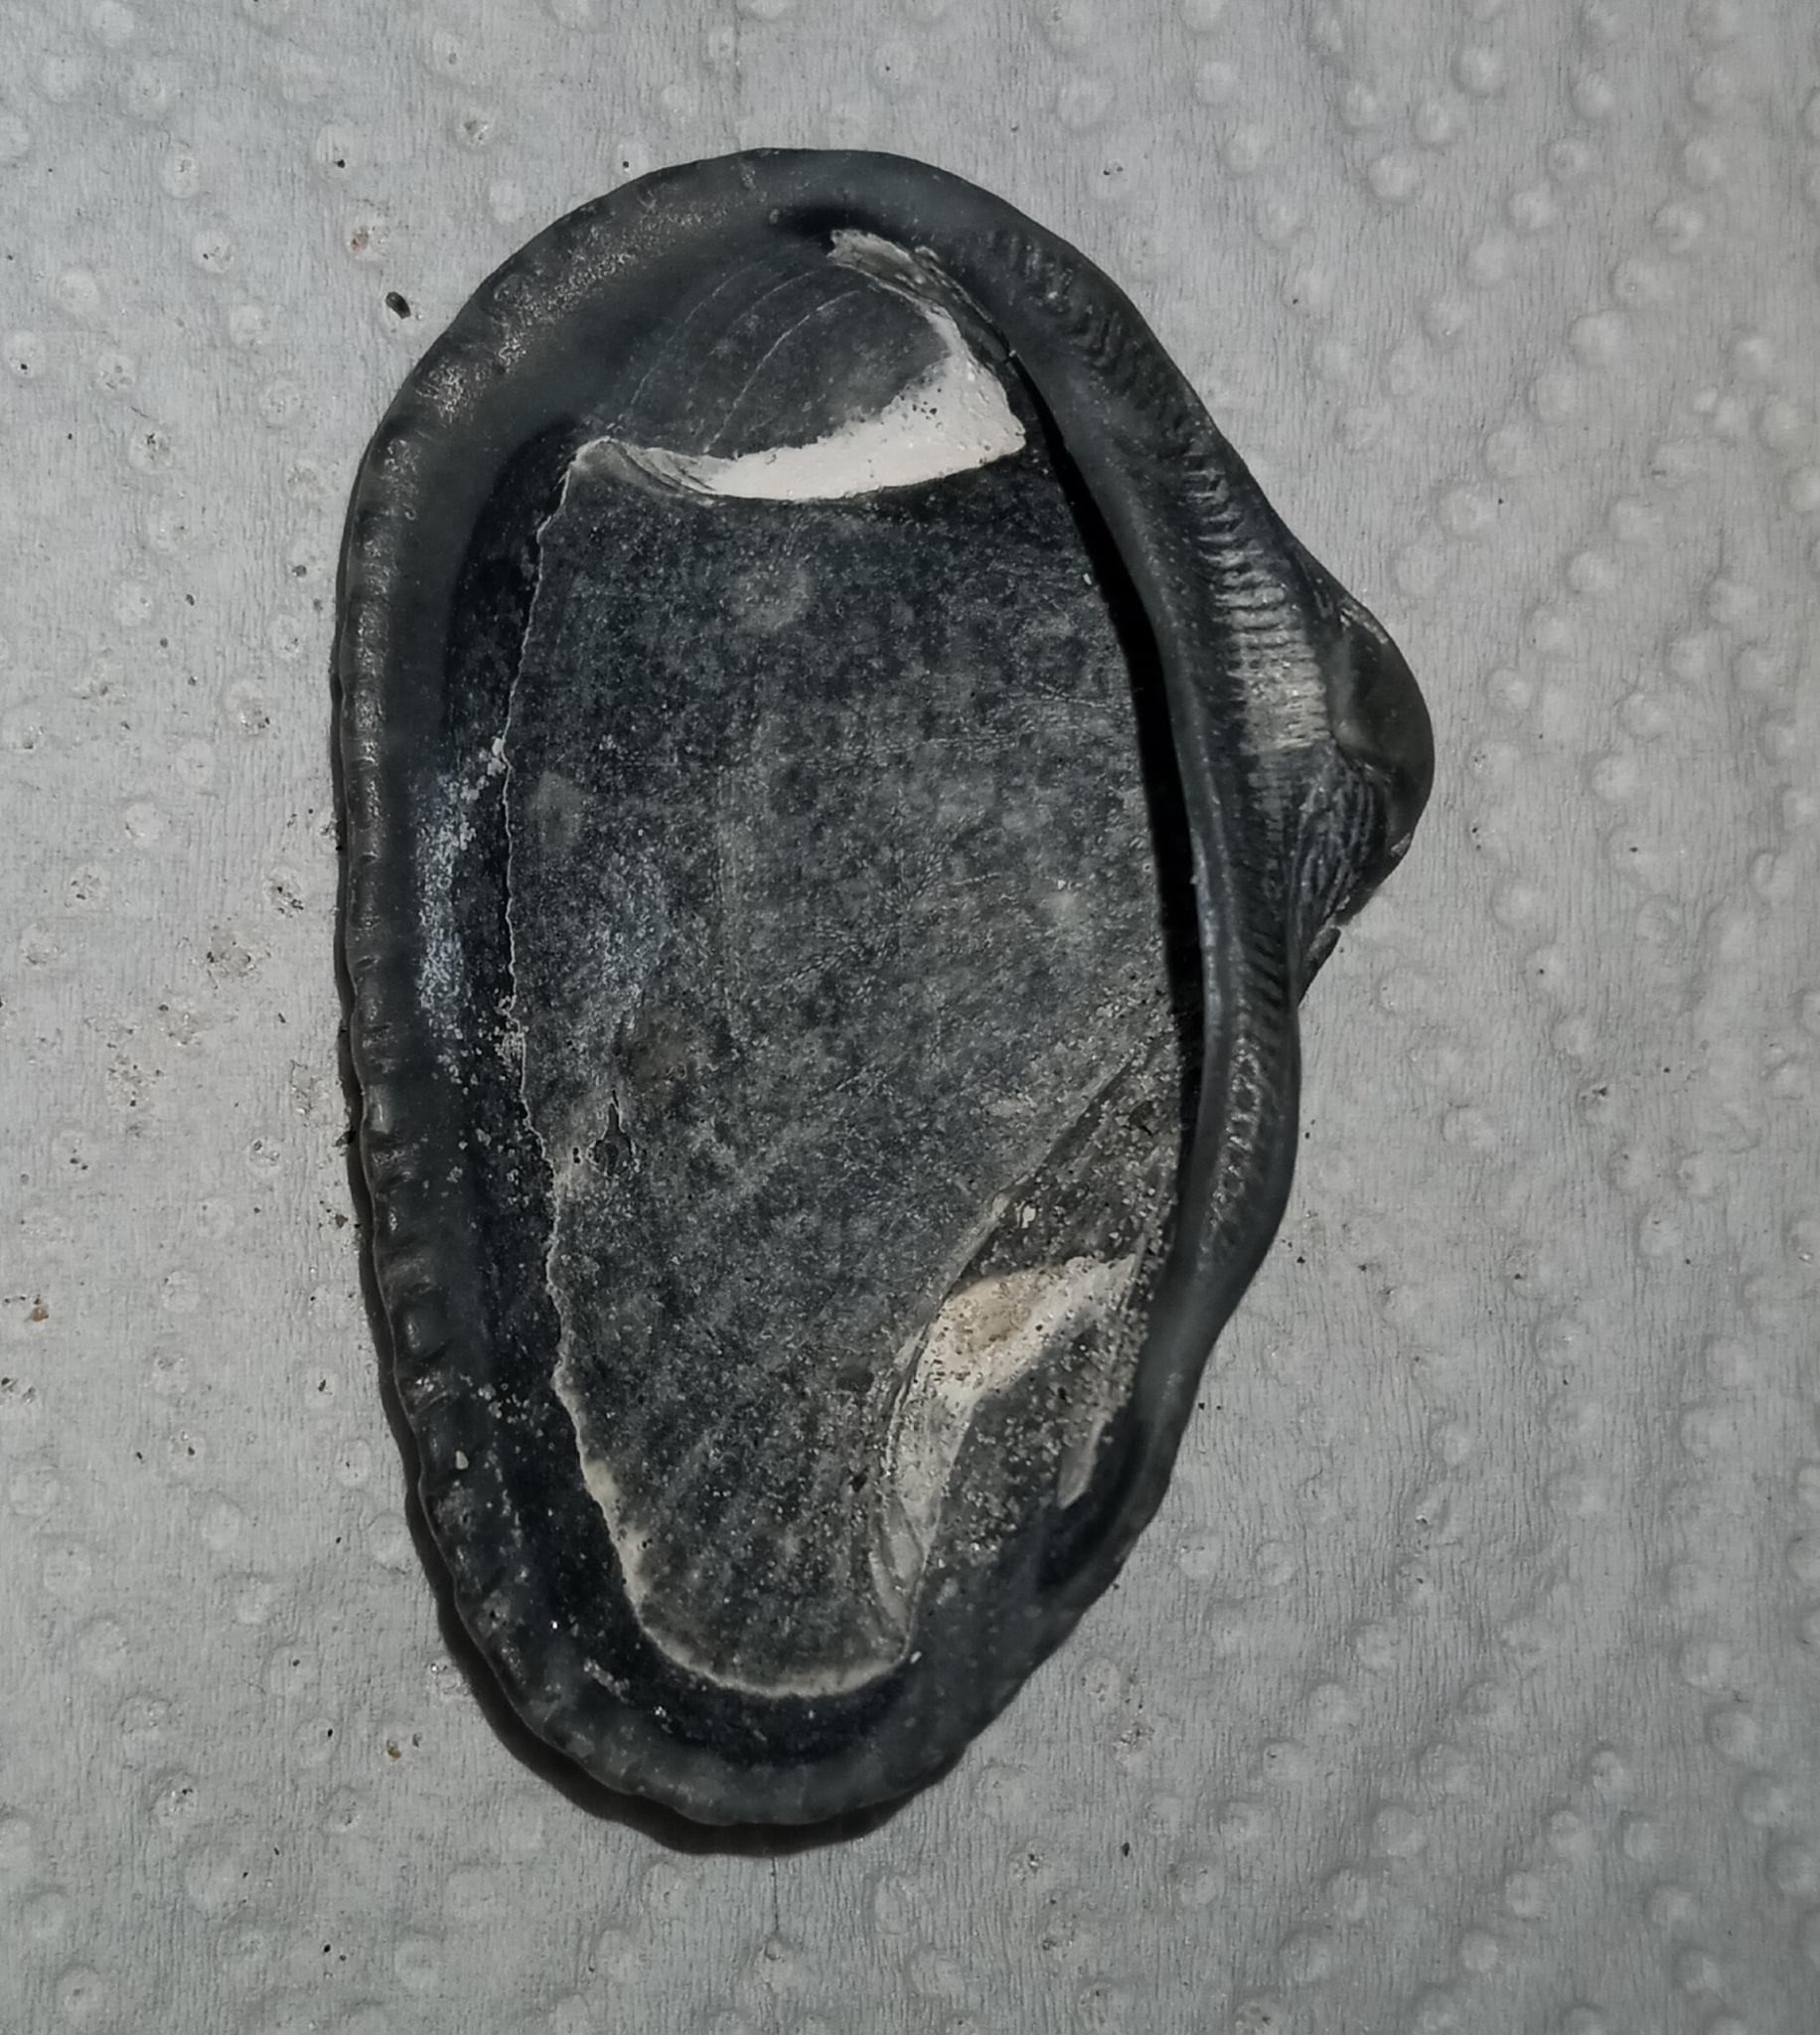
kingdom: Animalia
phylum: Mollusca
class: Bivalvia
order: Arcida
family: Noetiidae
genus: Noetia
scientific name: Noetia ponderosa
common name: Ponderous ark
